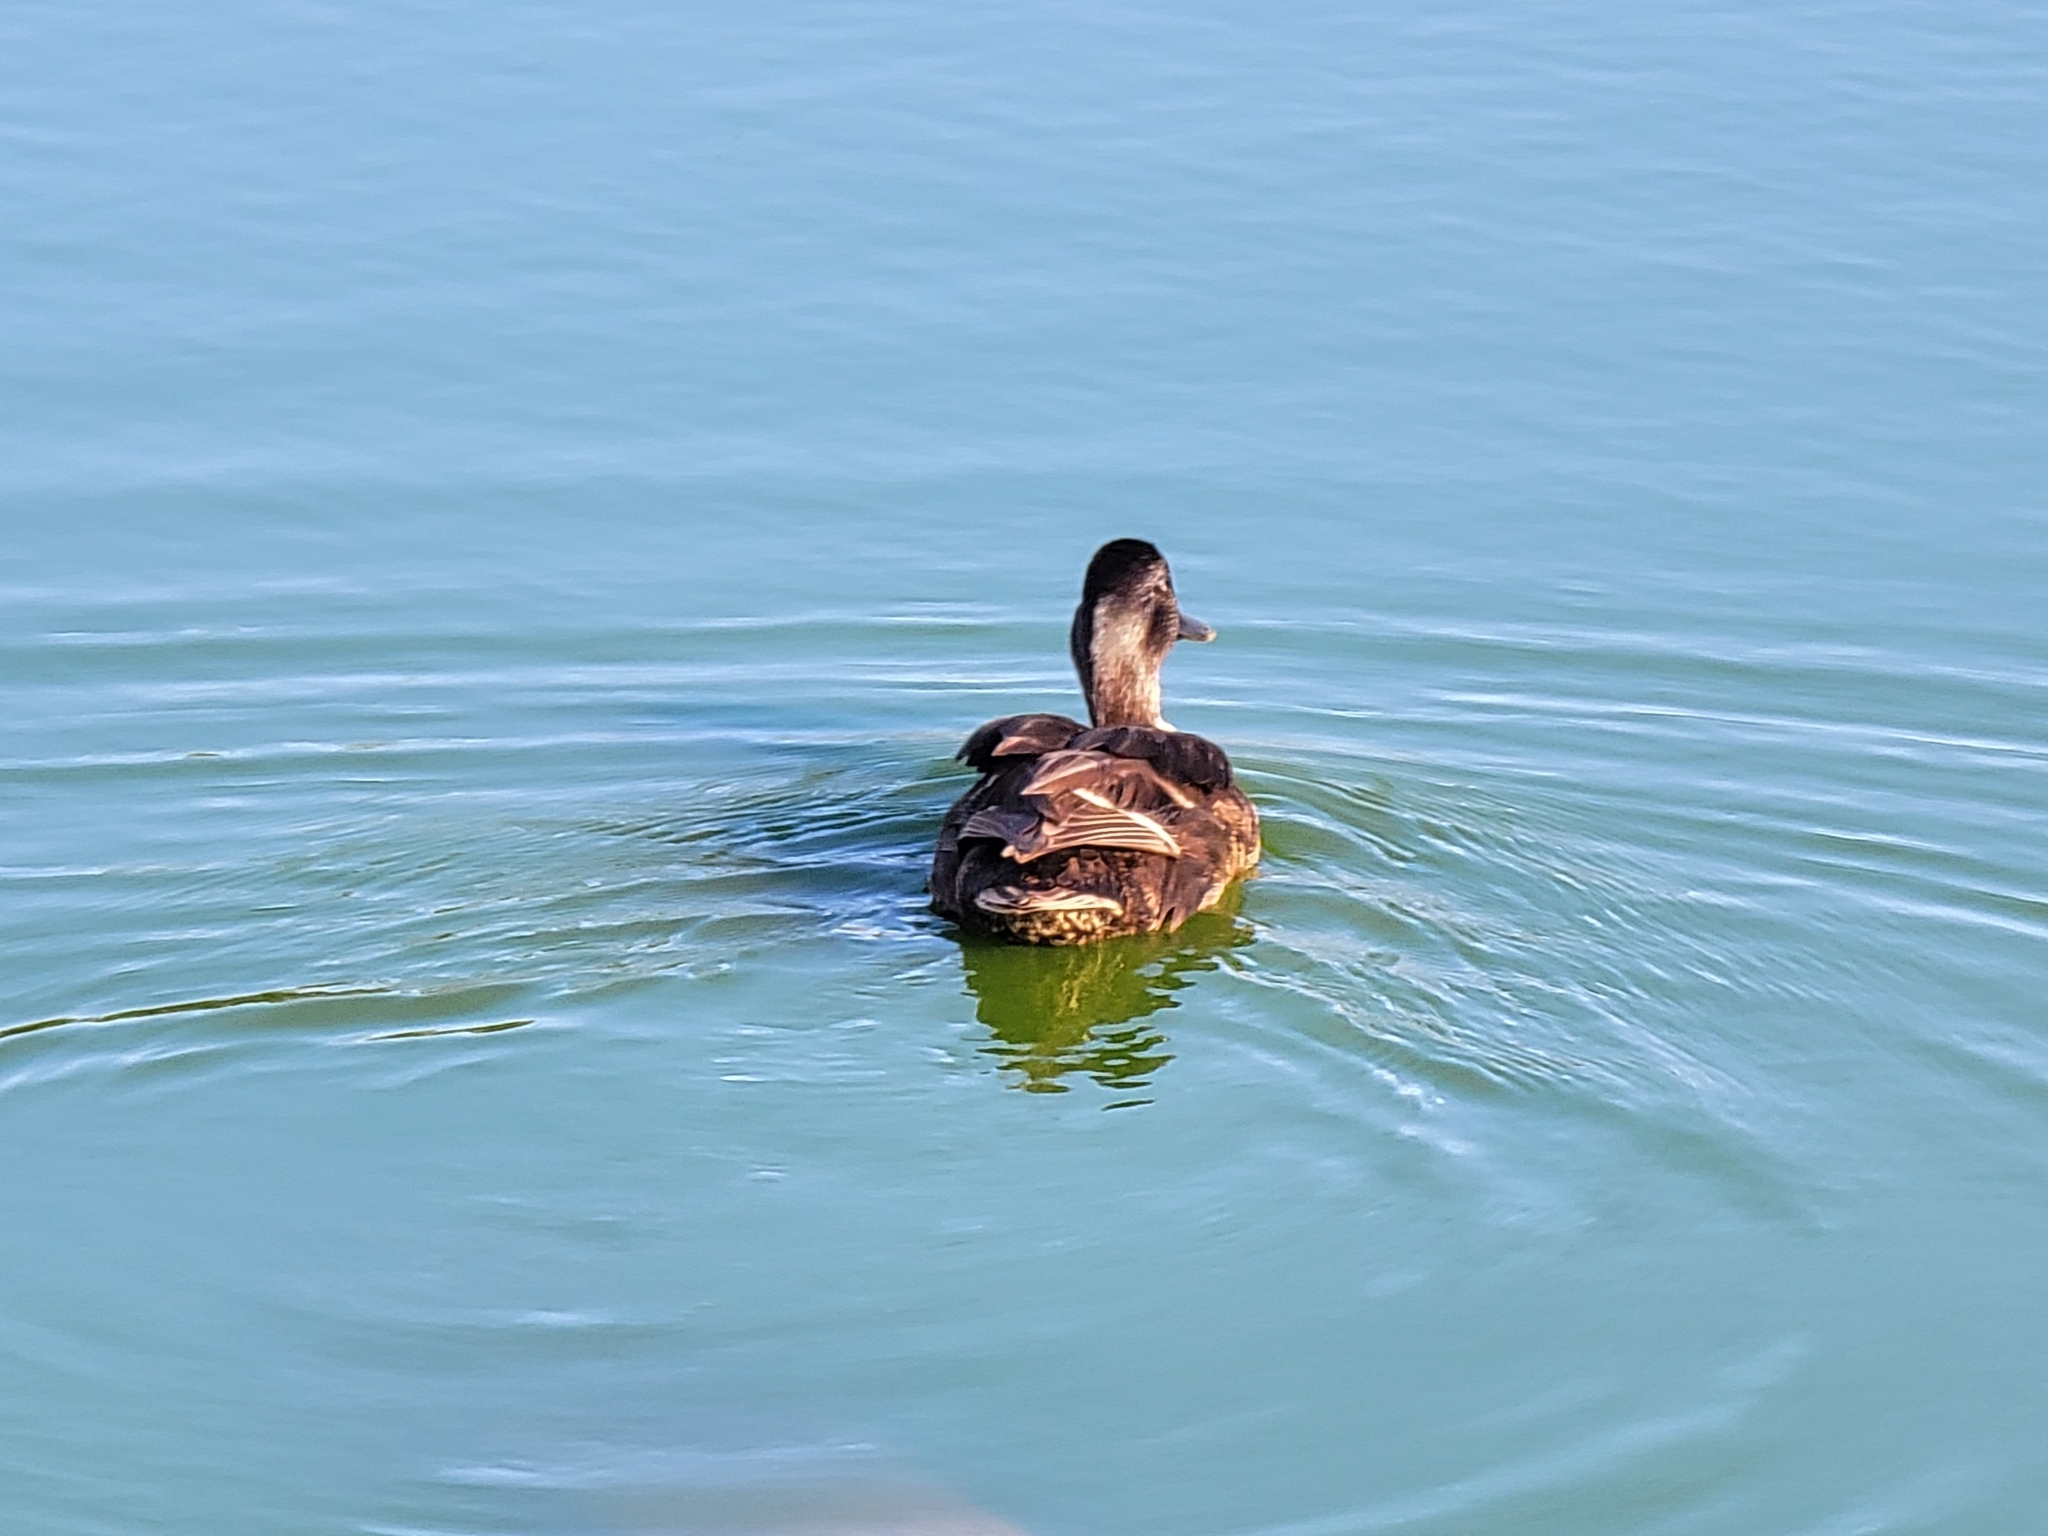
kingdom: Animalia
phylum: Chordata
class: Aves
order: Anseriformes
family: Anatidae
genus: Anas
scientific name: Anas platyrhynchos
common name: Mallard
